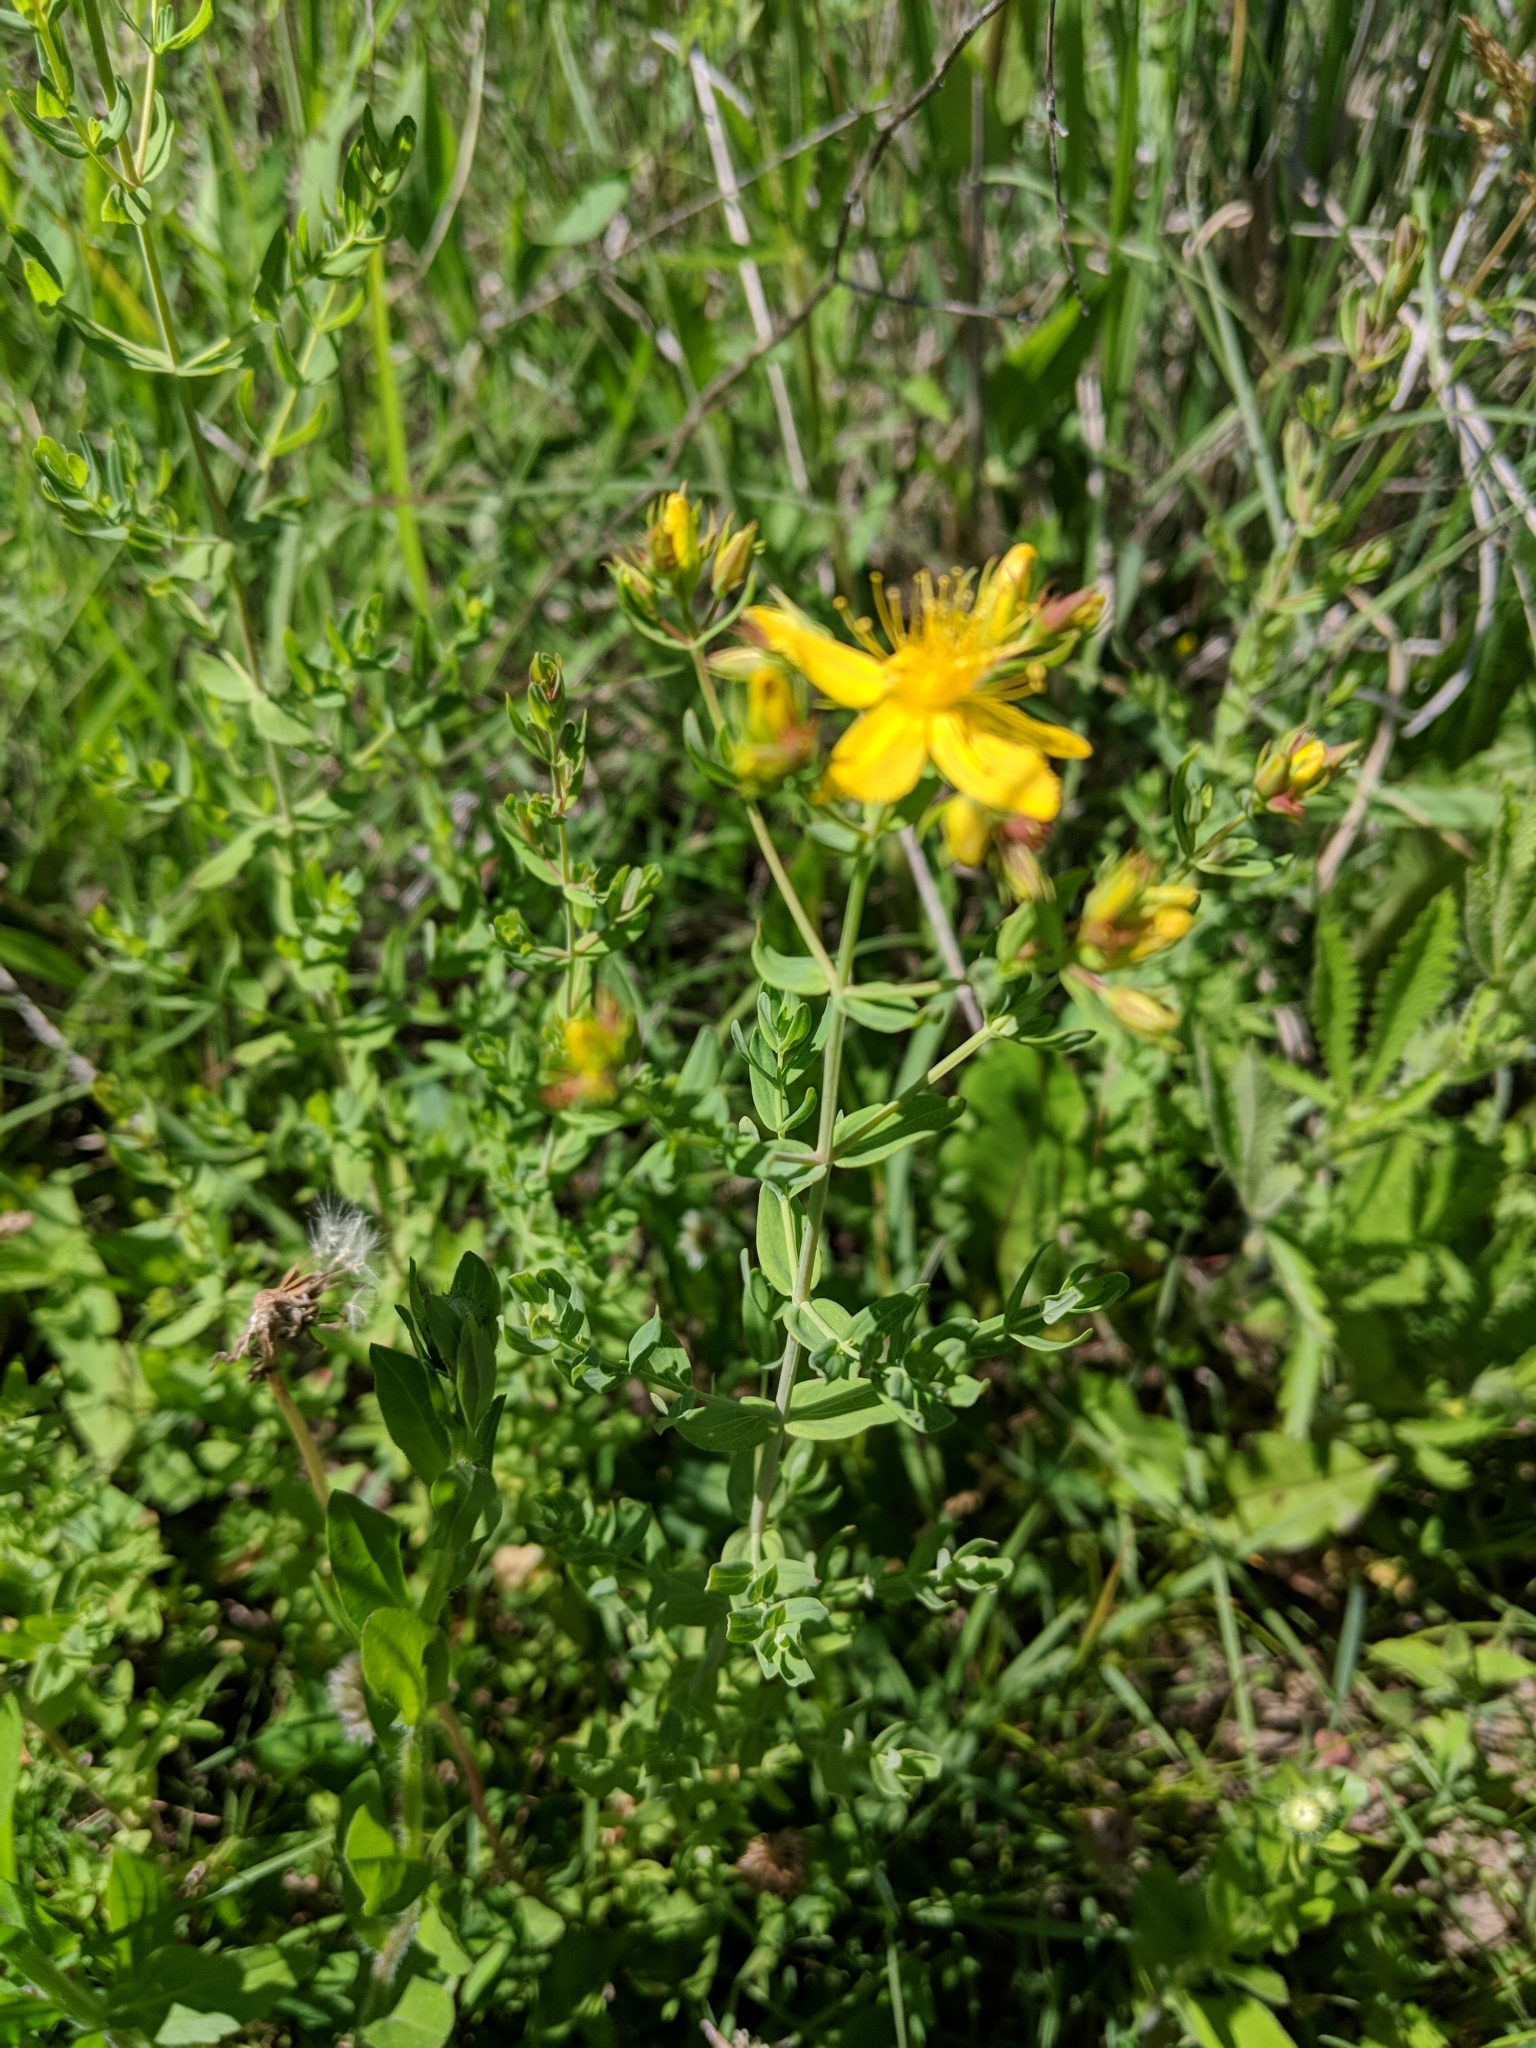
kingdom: Plantae
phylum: Tracheophyta
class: Magnoliopsida
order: Malpighiales
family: Hypericaceae
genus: Hypericum
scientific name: Hypericum perforatum
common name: Common st. johnswort
